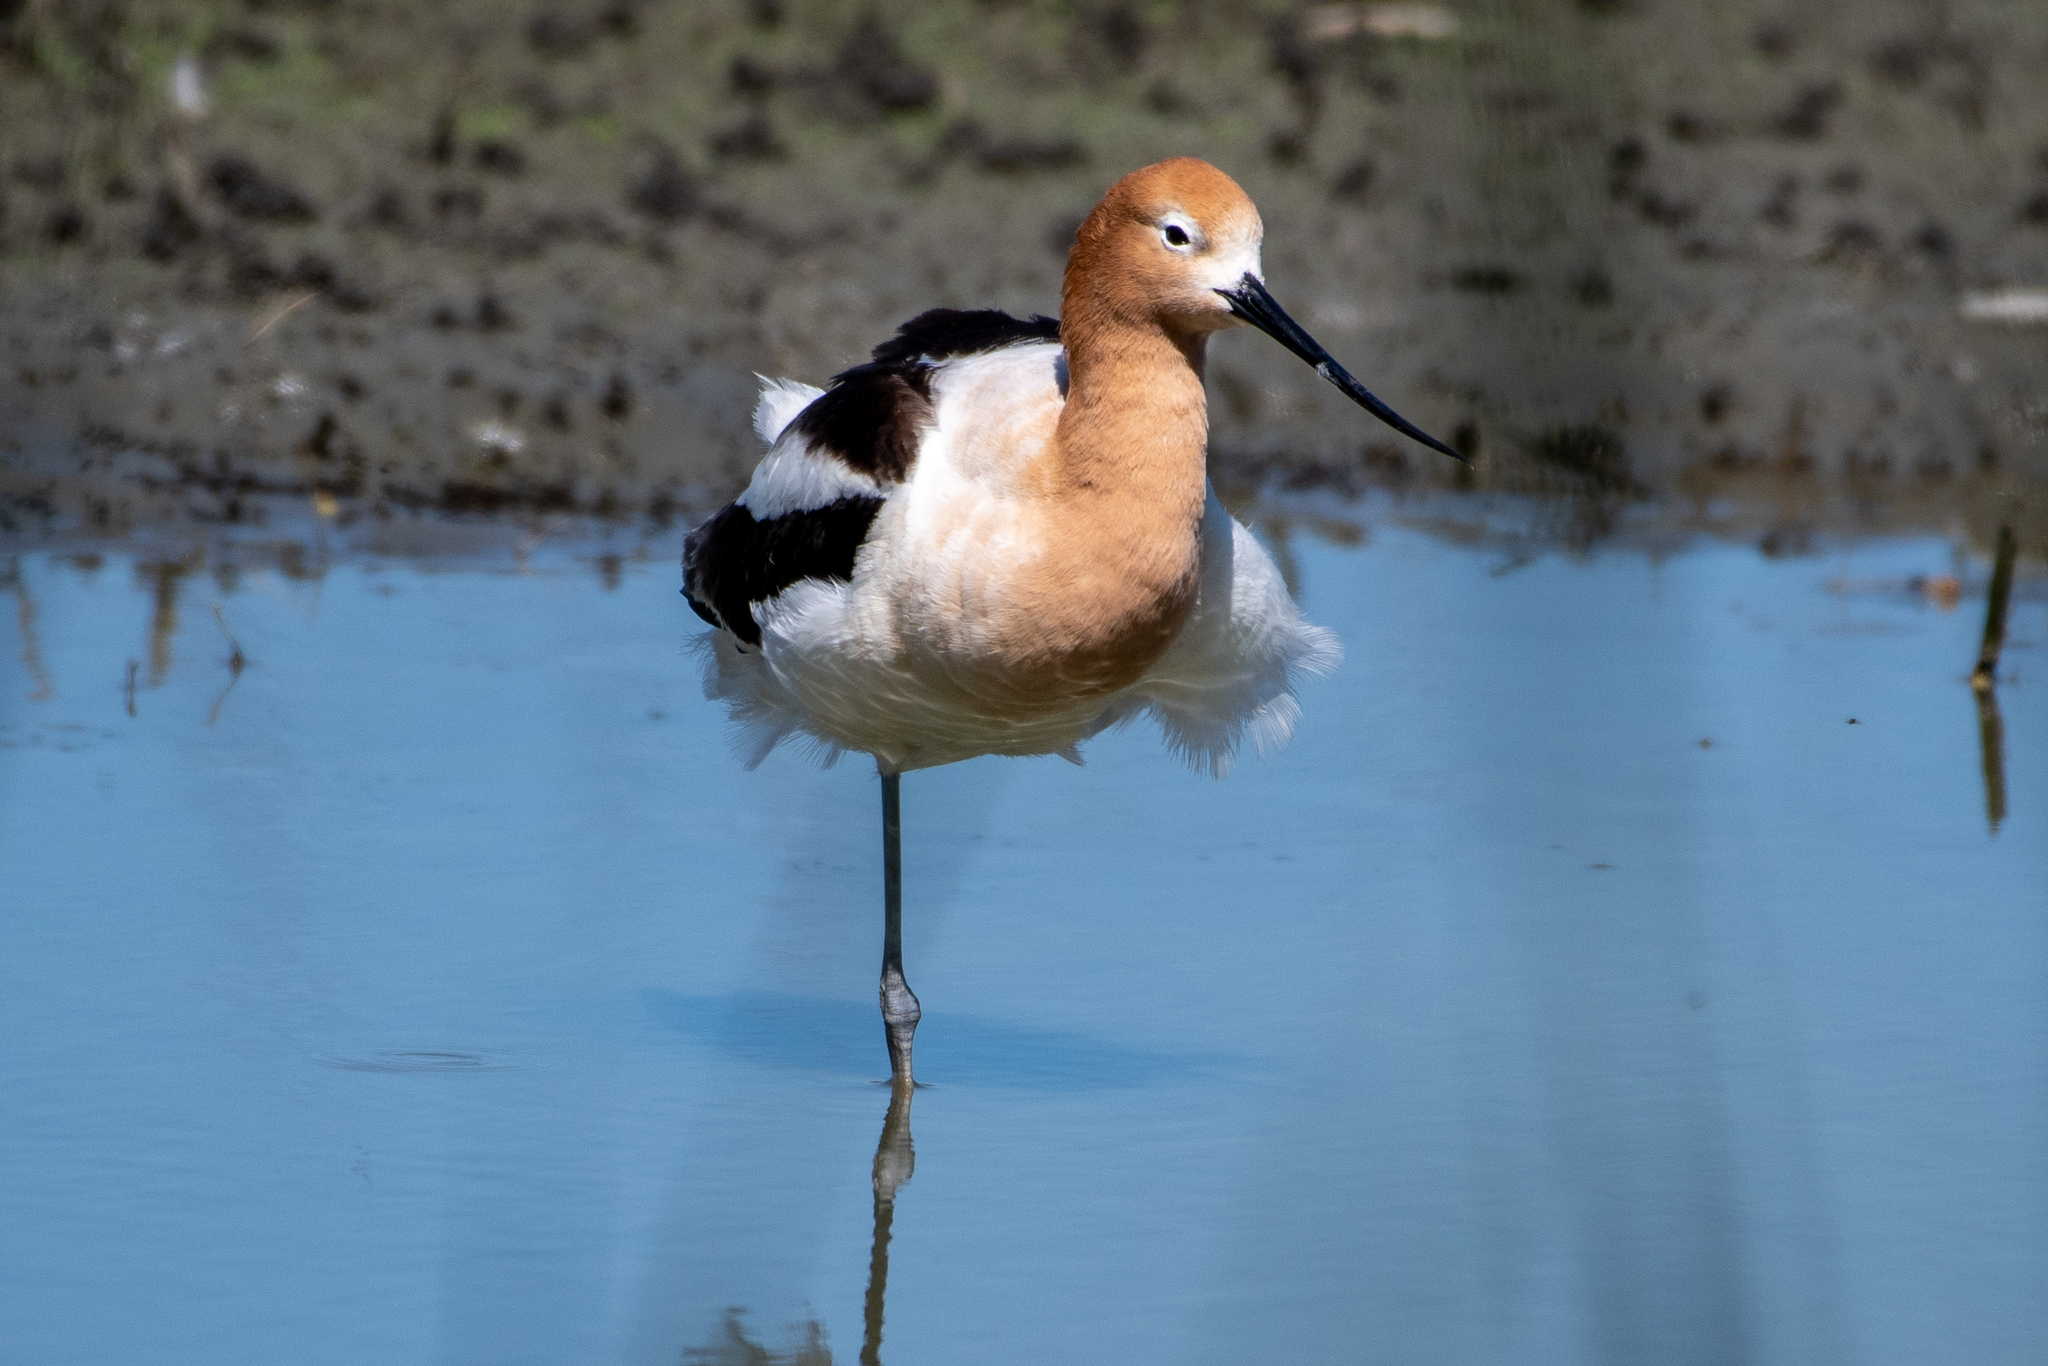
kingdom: Animalia
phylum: Chordata
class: Aves
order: Charadriiformes
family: Recurvirostridae
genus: Recurvirostra
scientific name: Recurvirostra americana
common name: American avocet
